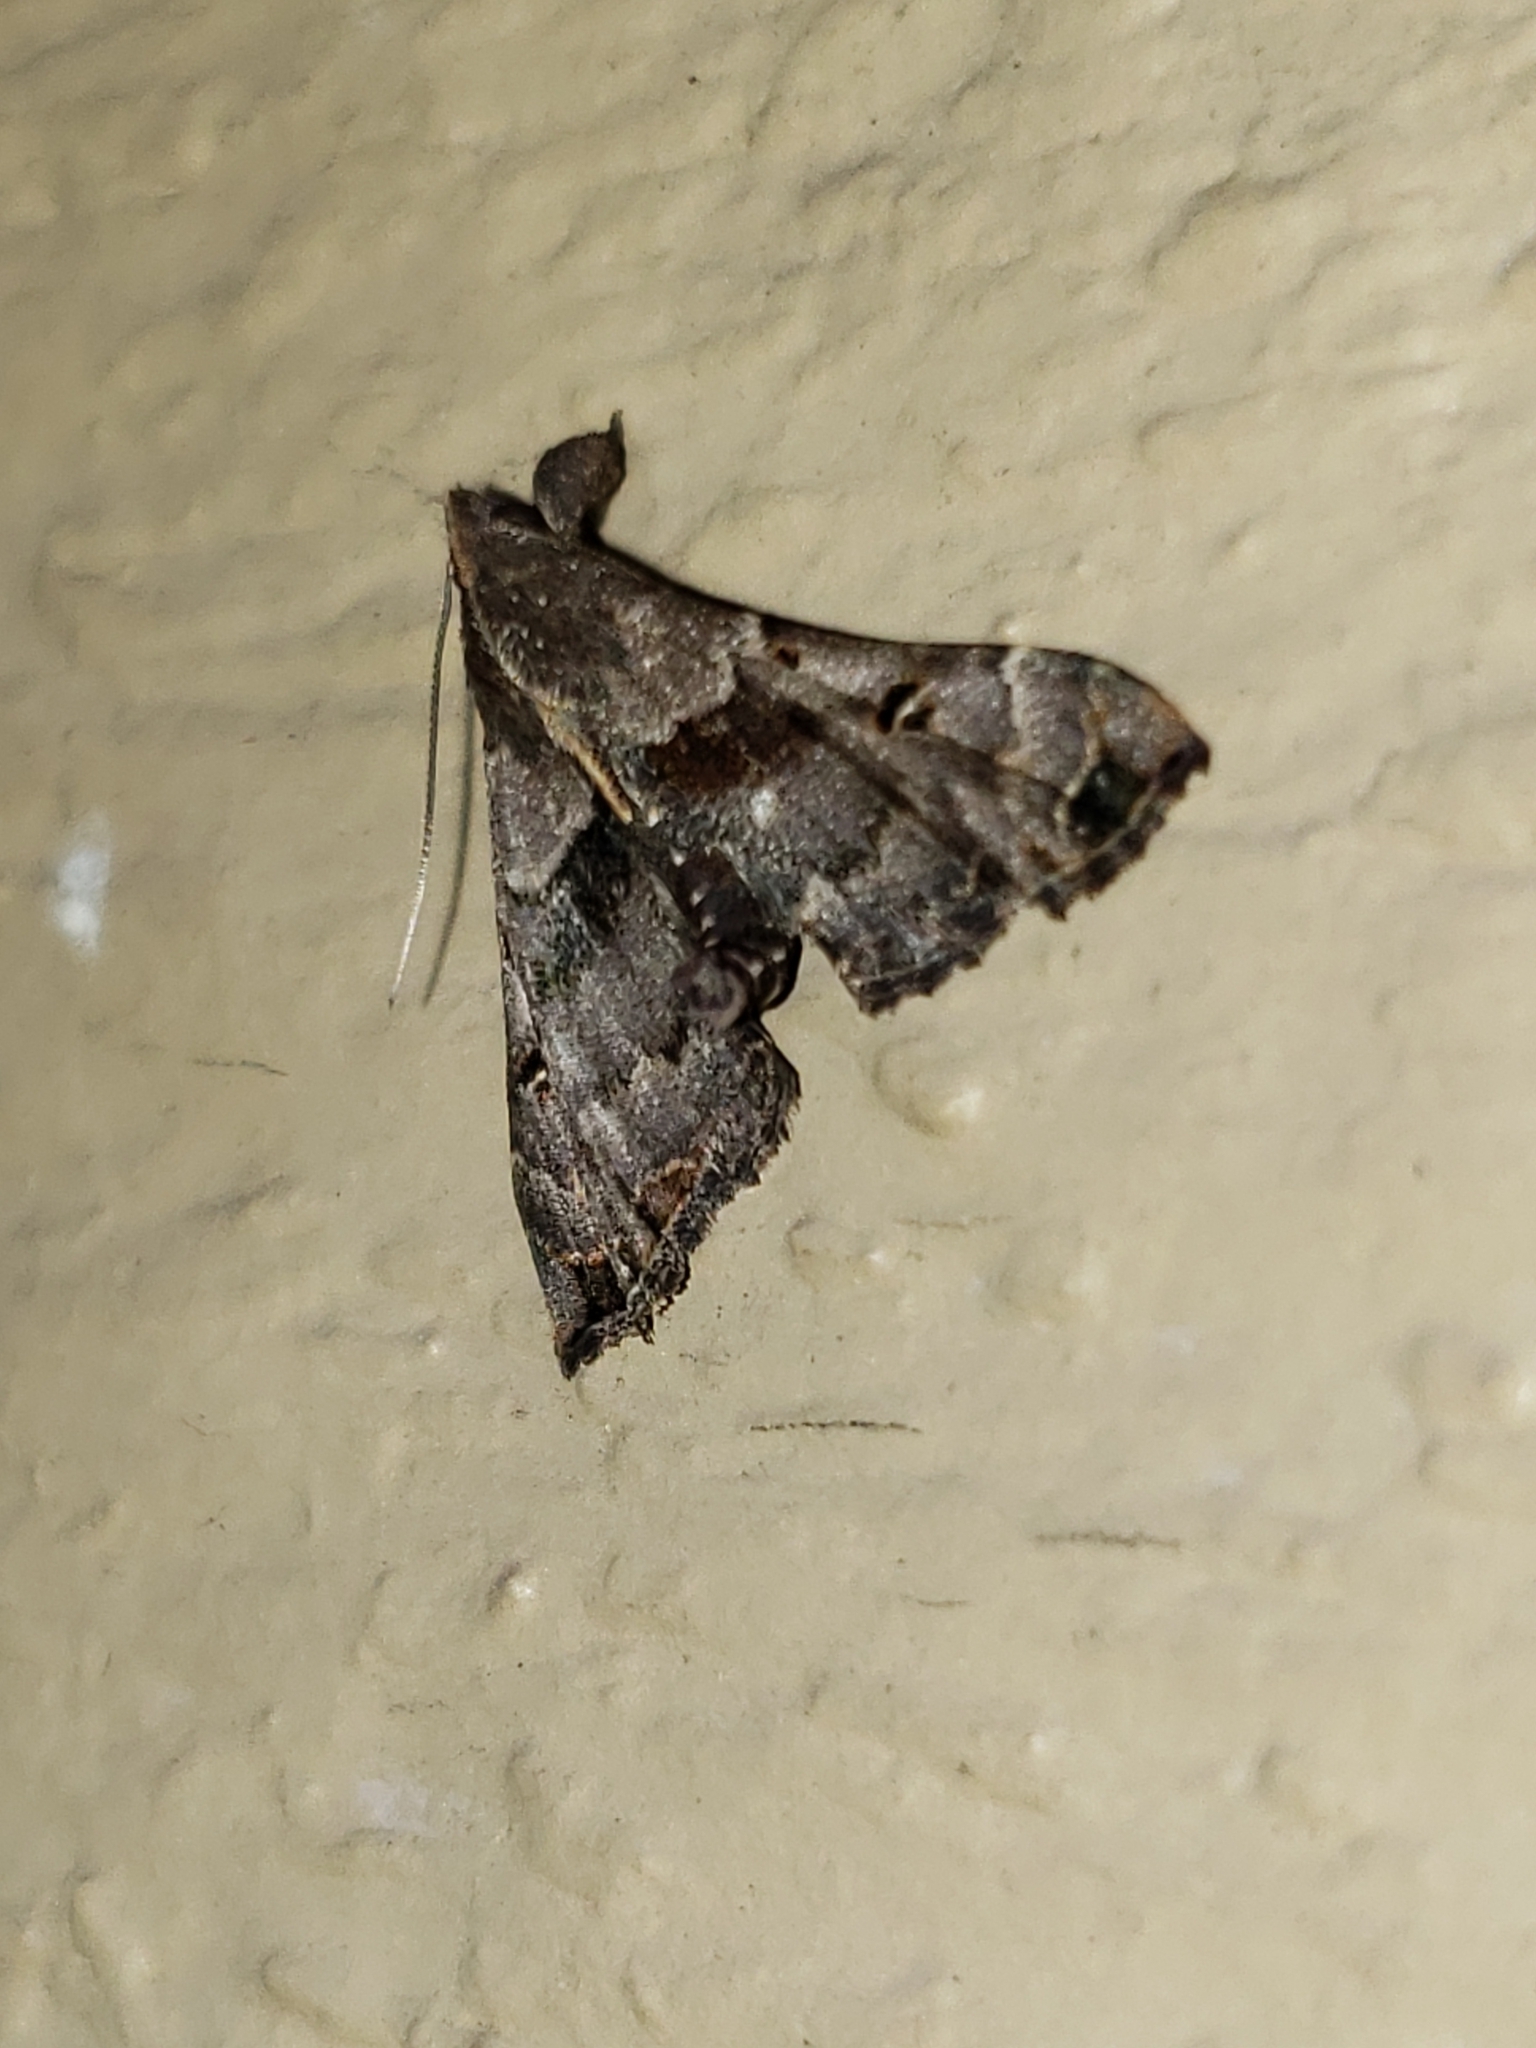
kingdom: Animalia
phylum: Arthropoda
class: Insecta
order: Lepidoptera
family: Erebidae
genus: Palthis
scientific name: Palthis asopialis
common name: Faint-spotted palthis moth
